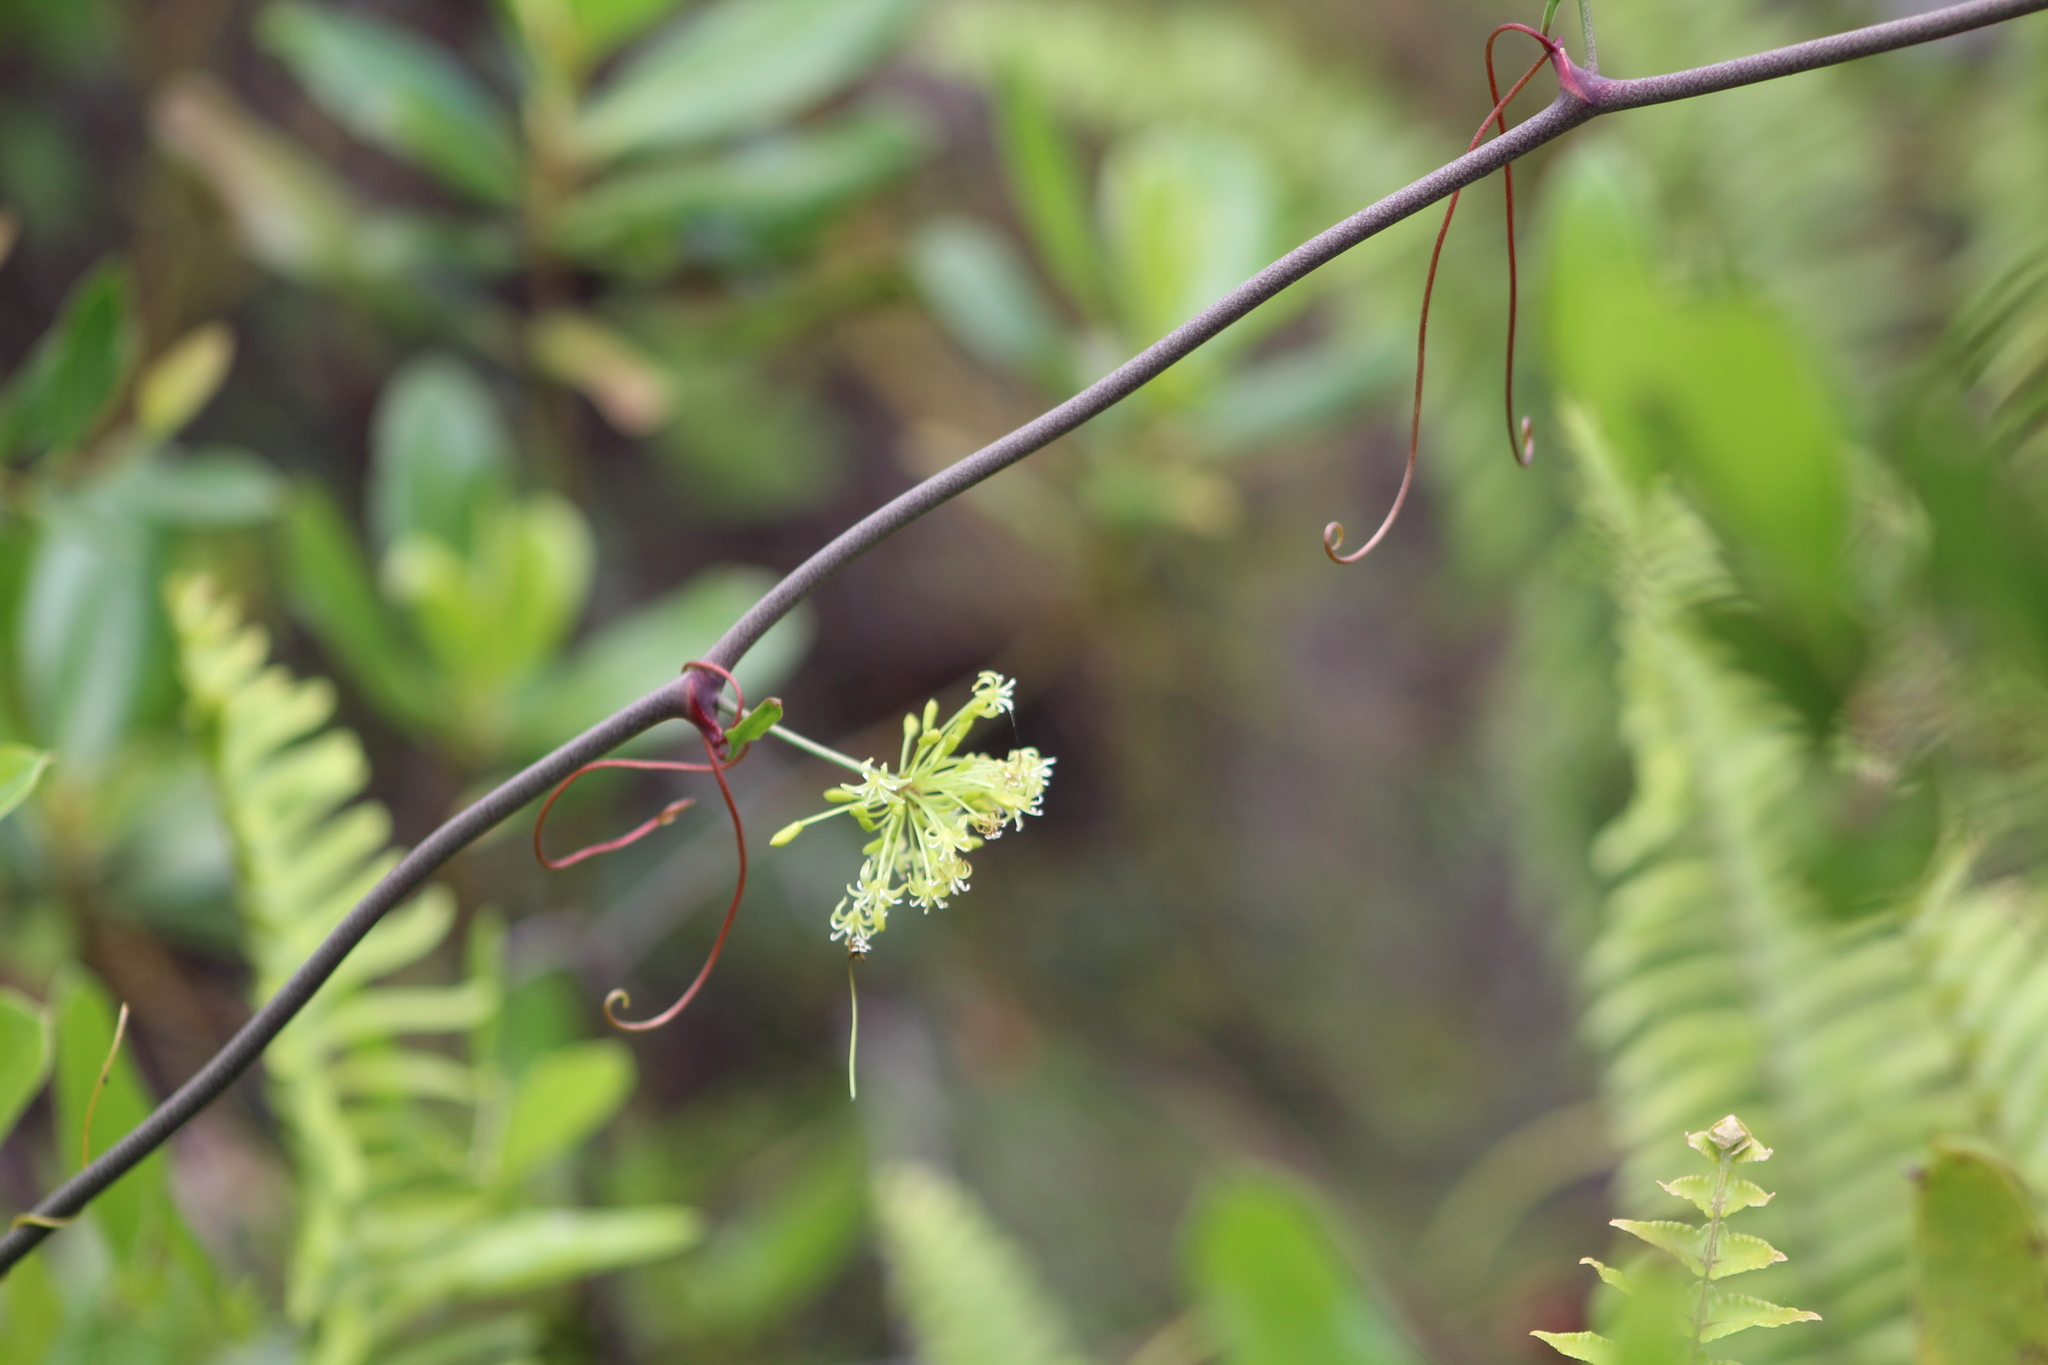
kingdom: Plantae
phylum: Tracheophyta
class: Liliopsida
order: Liliales
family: Smilacaceae
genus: Smilax
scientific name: Smilax auriculata
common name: Wild bamboo
